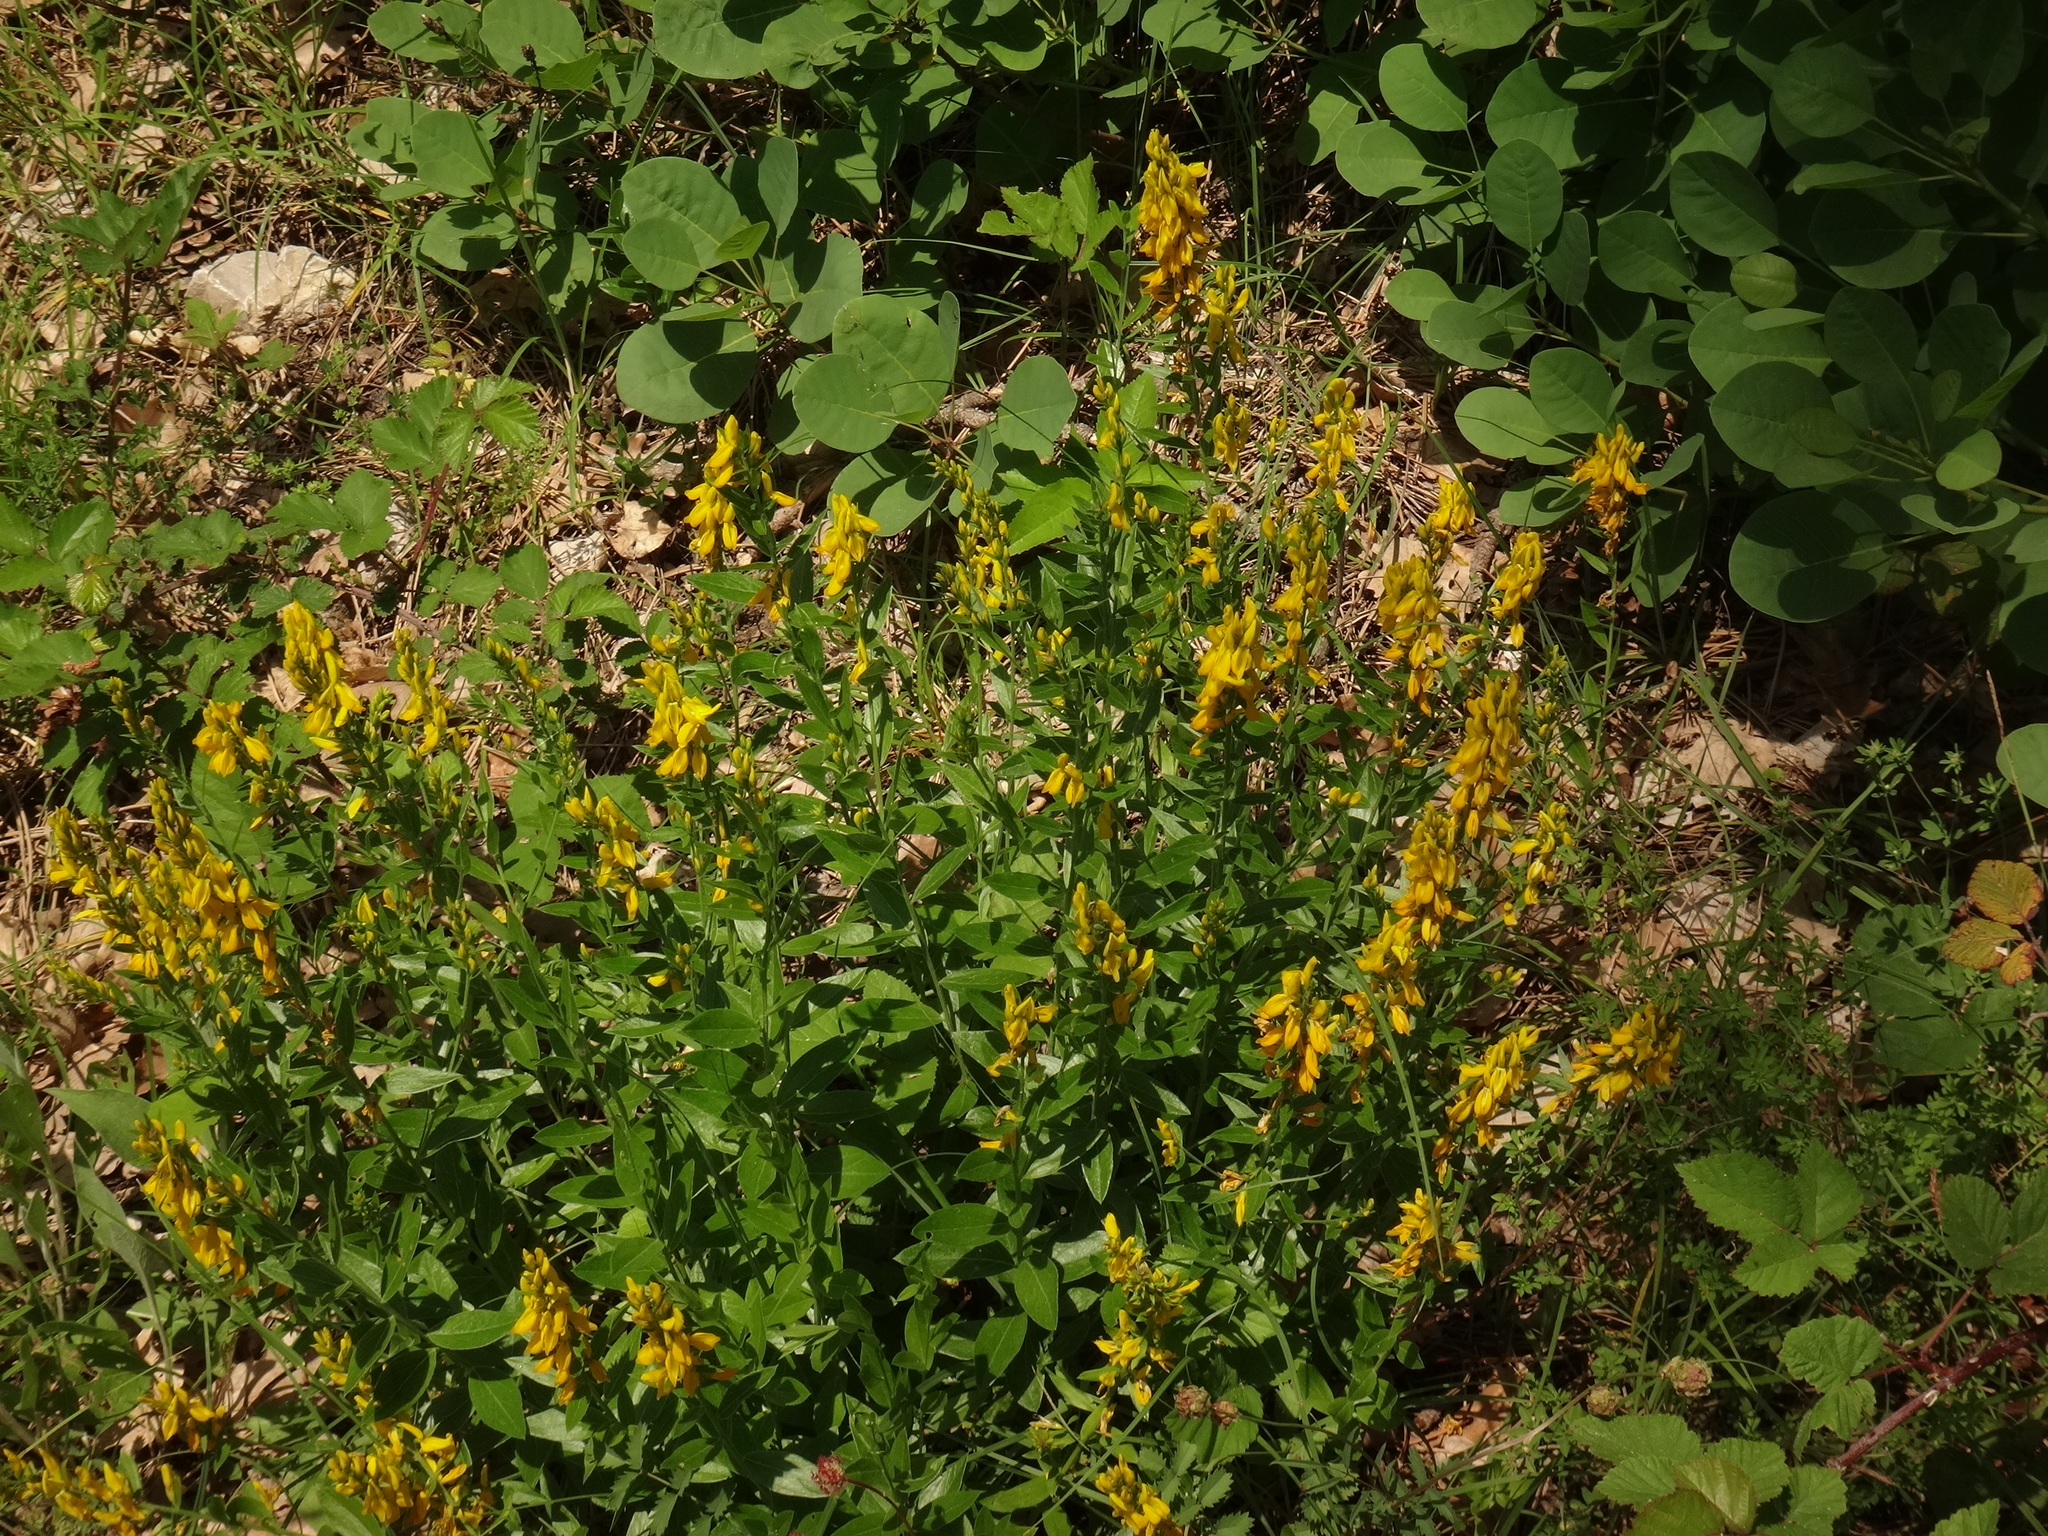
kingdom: Plantae
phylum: Tracheophyta
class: Magnoliopsida
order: Fabales
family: Fabaceae
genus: Genista
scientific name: Genista tinctoria
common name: Dyer's greenweed
